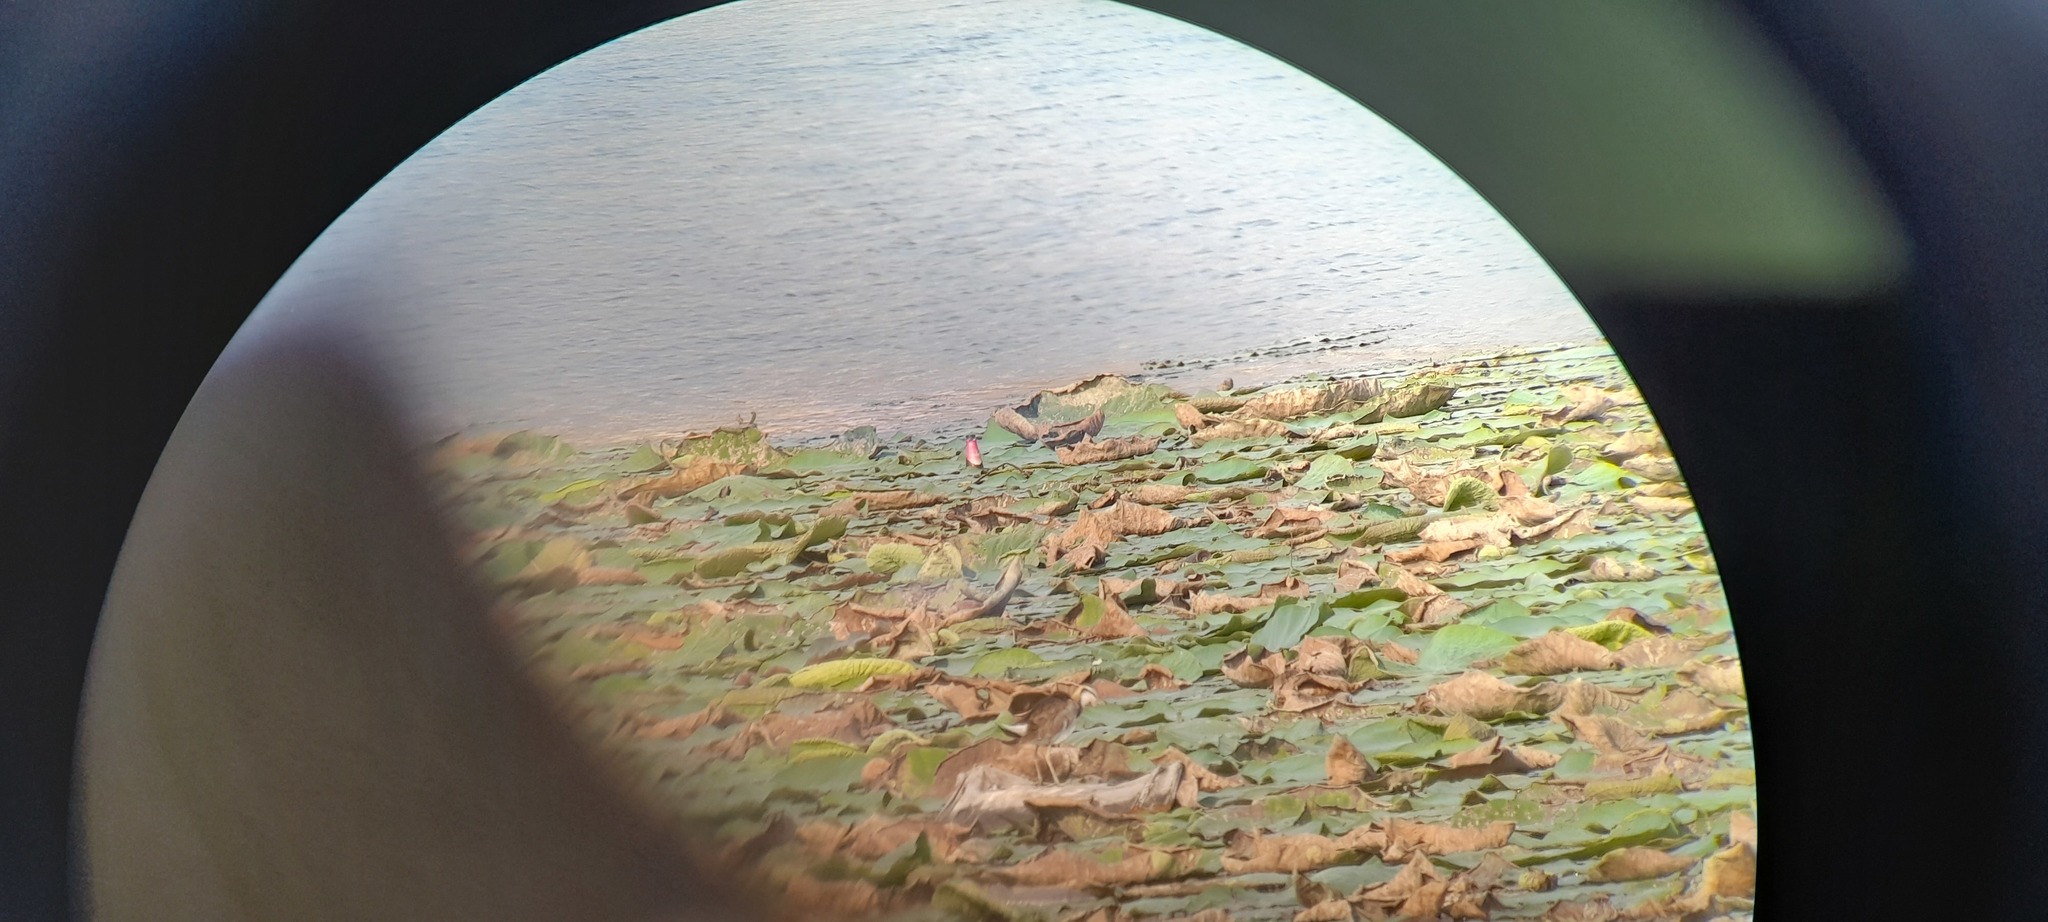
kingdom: Animalia
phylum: Chordata
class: Aves
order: Charadriiformes
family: Jacanidae
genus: Hydrophasianus
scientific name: Hydrophasianus chirurgus
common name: Pheasant-tailed jacana
